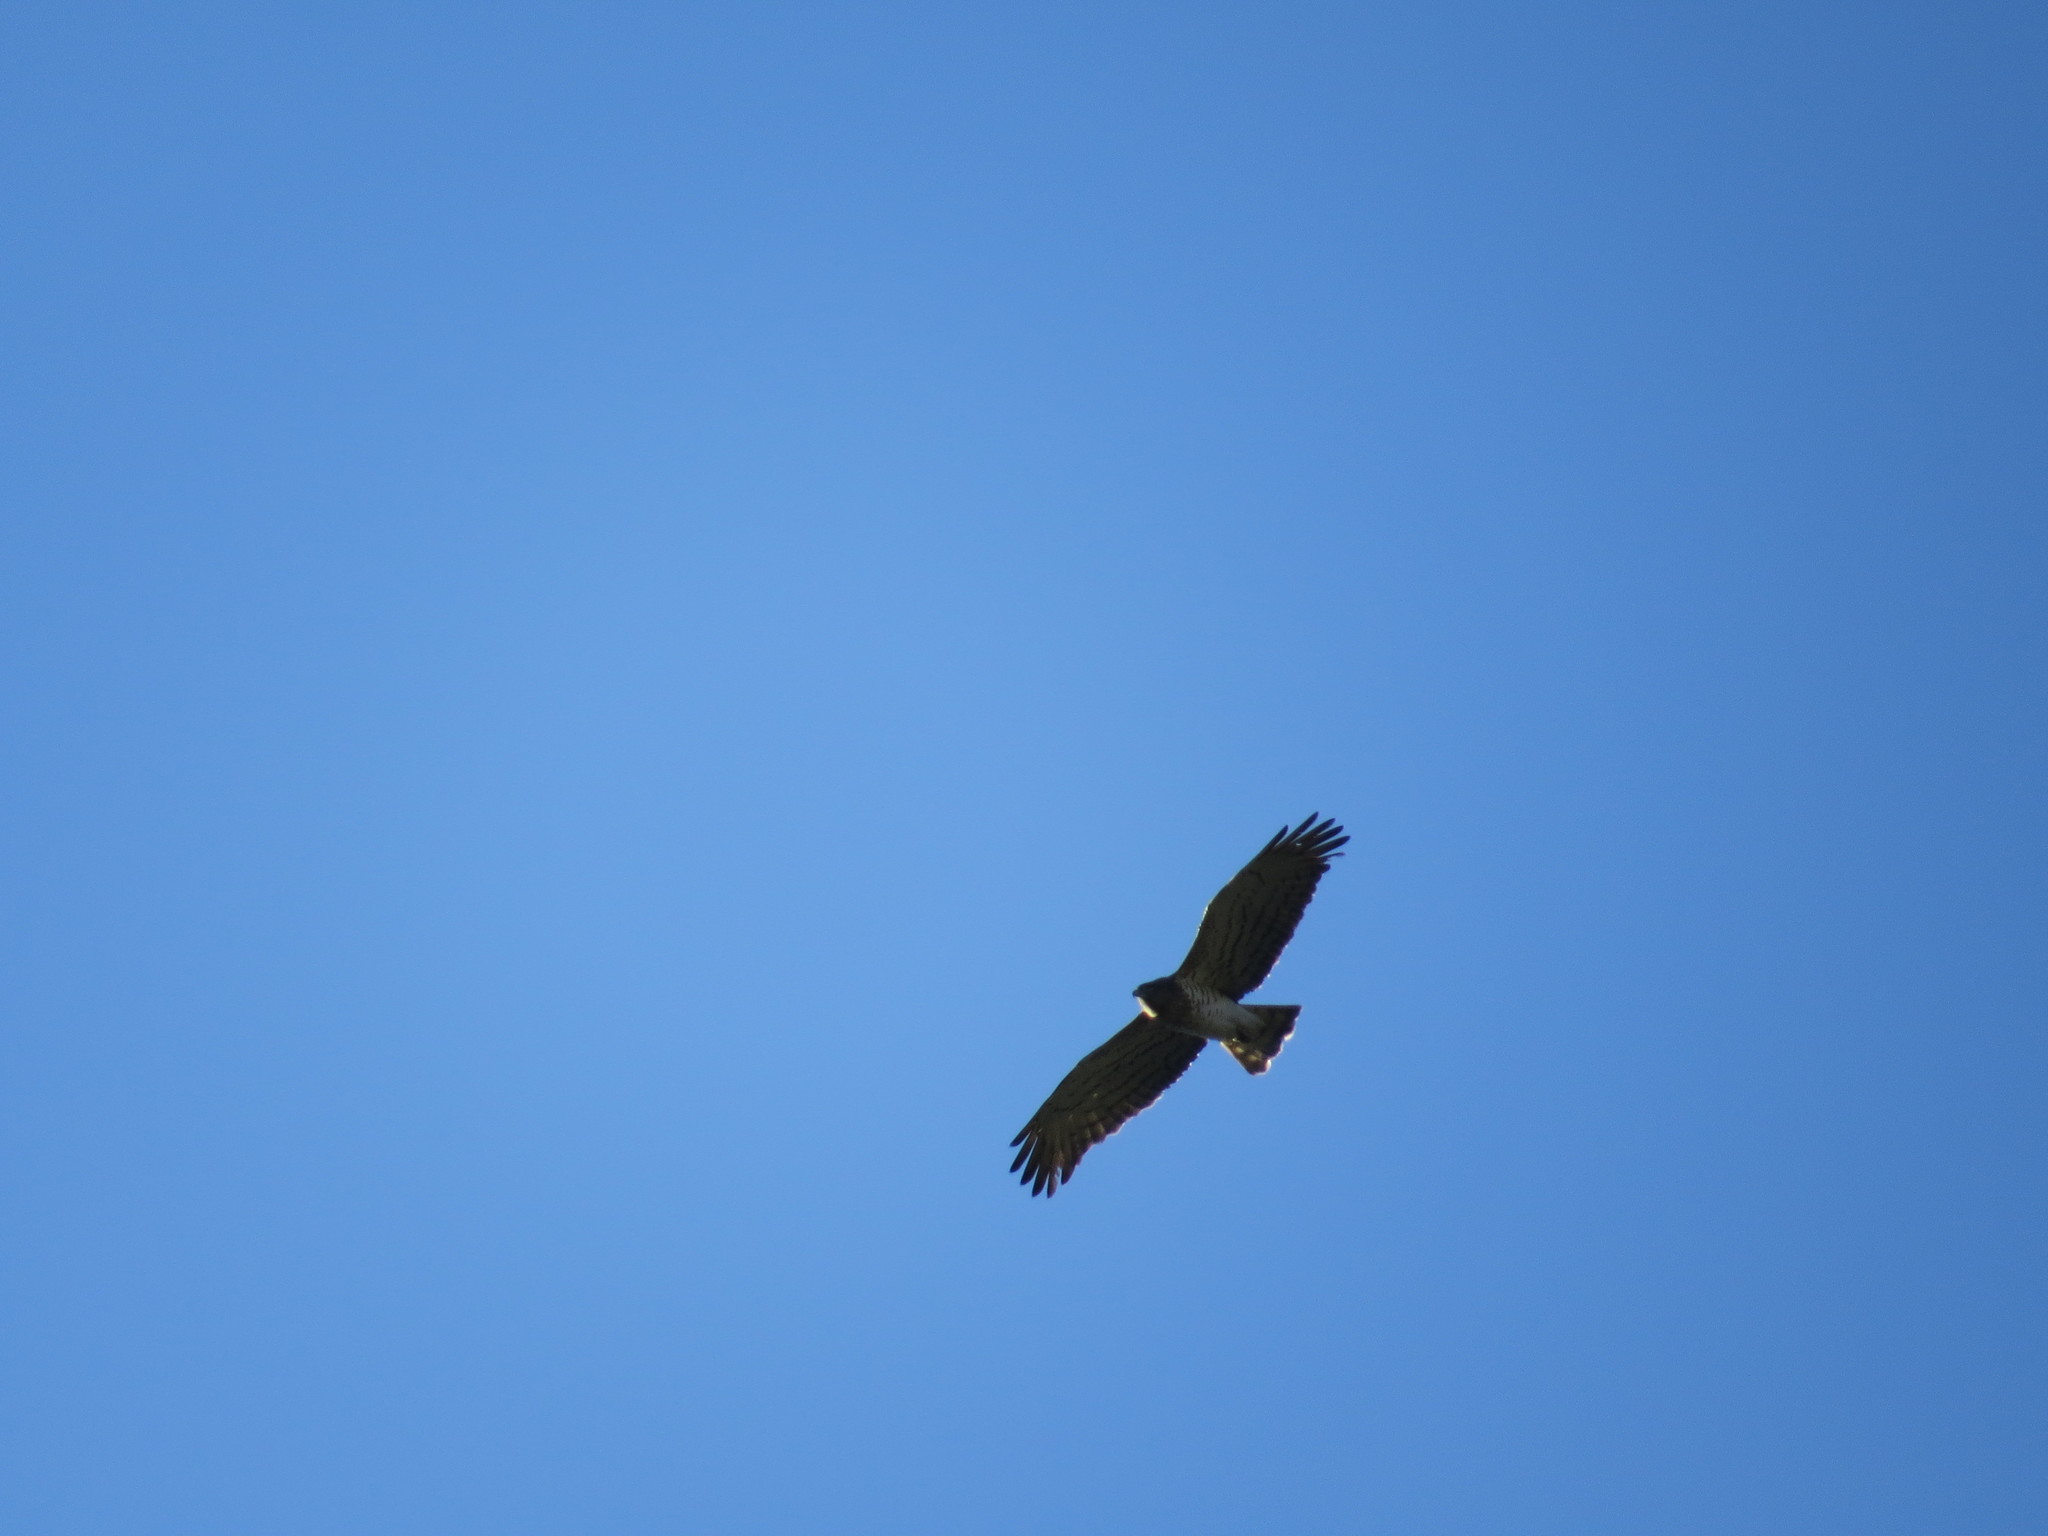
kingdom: Animalia
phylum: Chordata
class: Aves
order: Accipitriformes
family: Accipitridae
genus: Circaetus
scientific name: Circaetus gallicus
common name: Short-toed snake eagle
